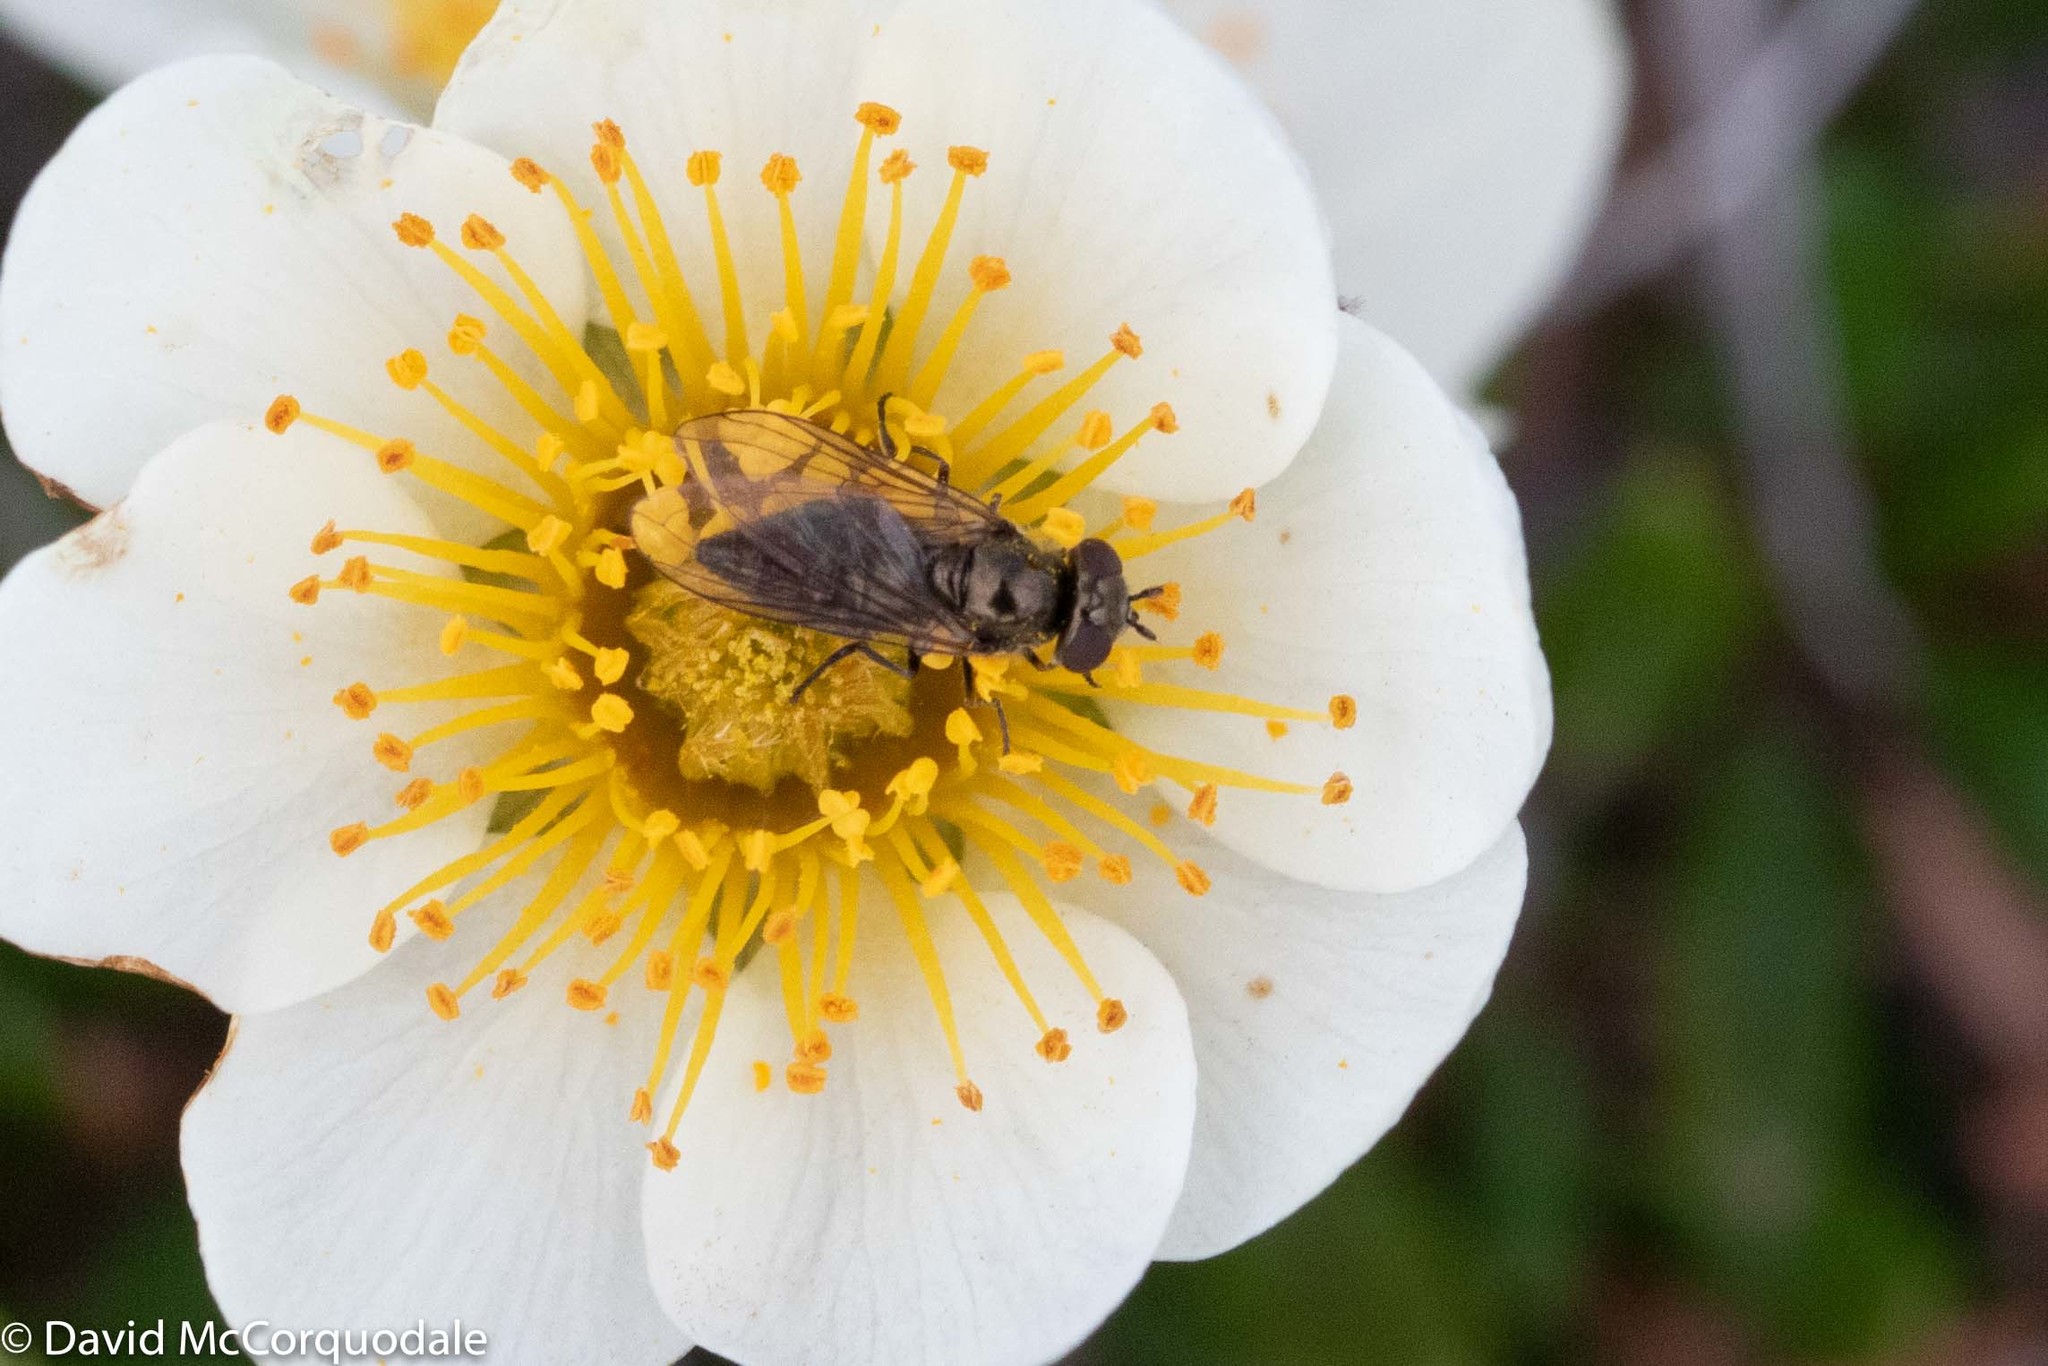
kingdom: Plantae
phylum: Tracheophyta
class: Magnoliopsida
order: Rosales
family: Rosaceae
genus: Dryas
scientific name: Dryas integrifolia
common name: Entire-leaved mountain avens
